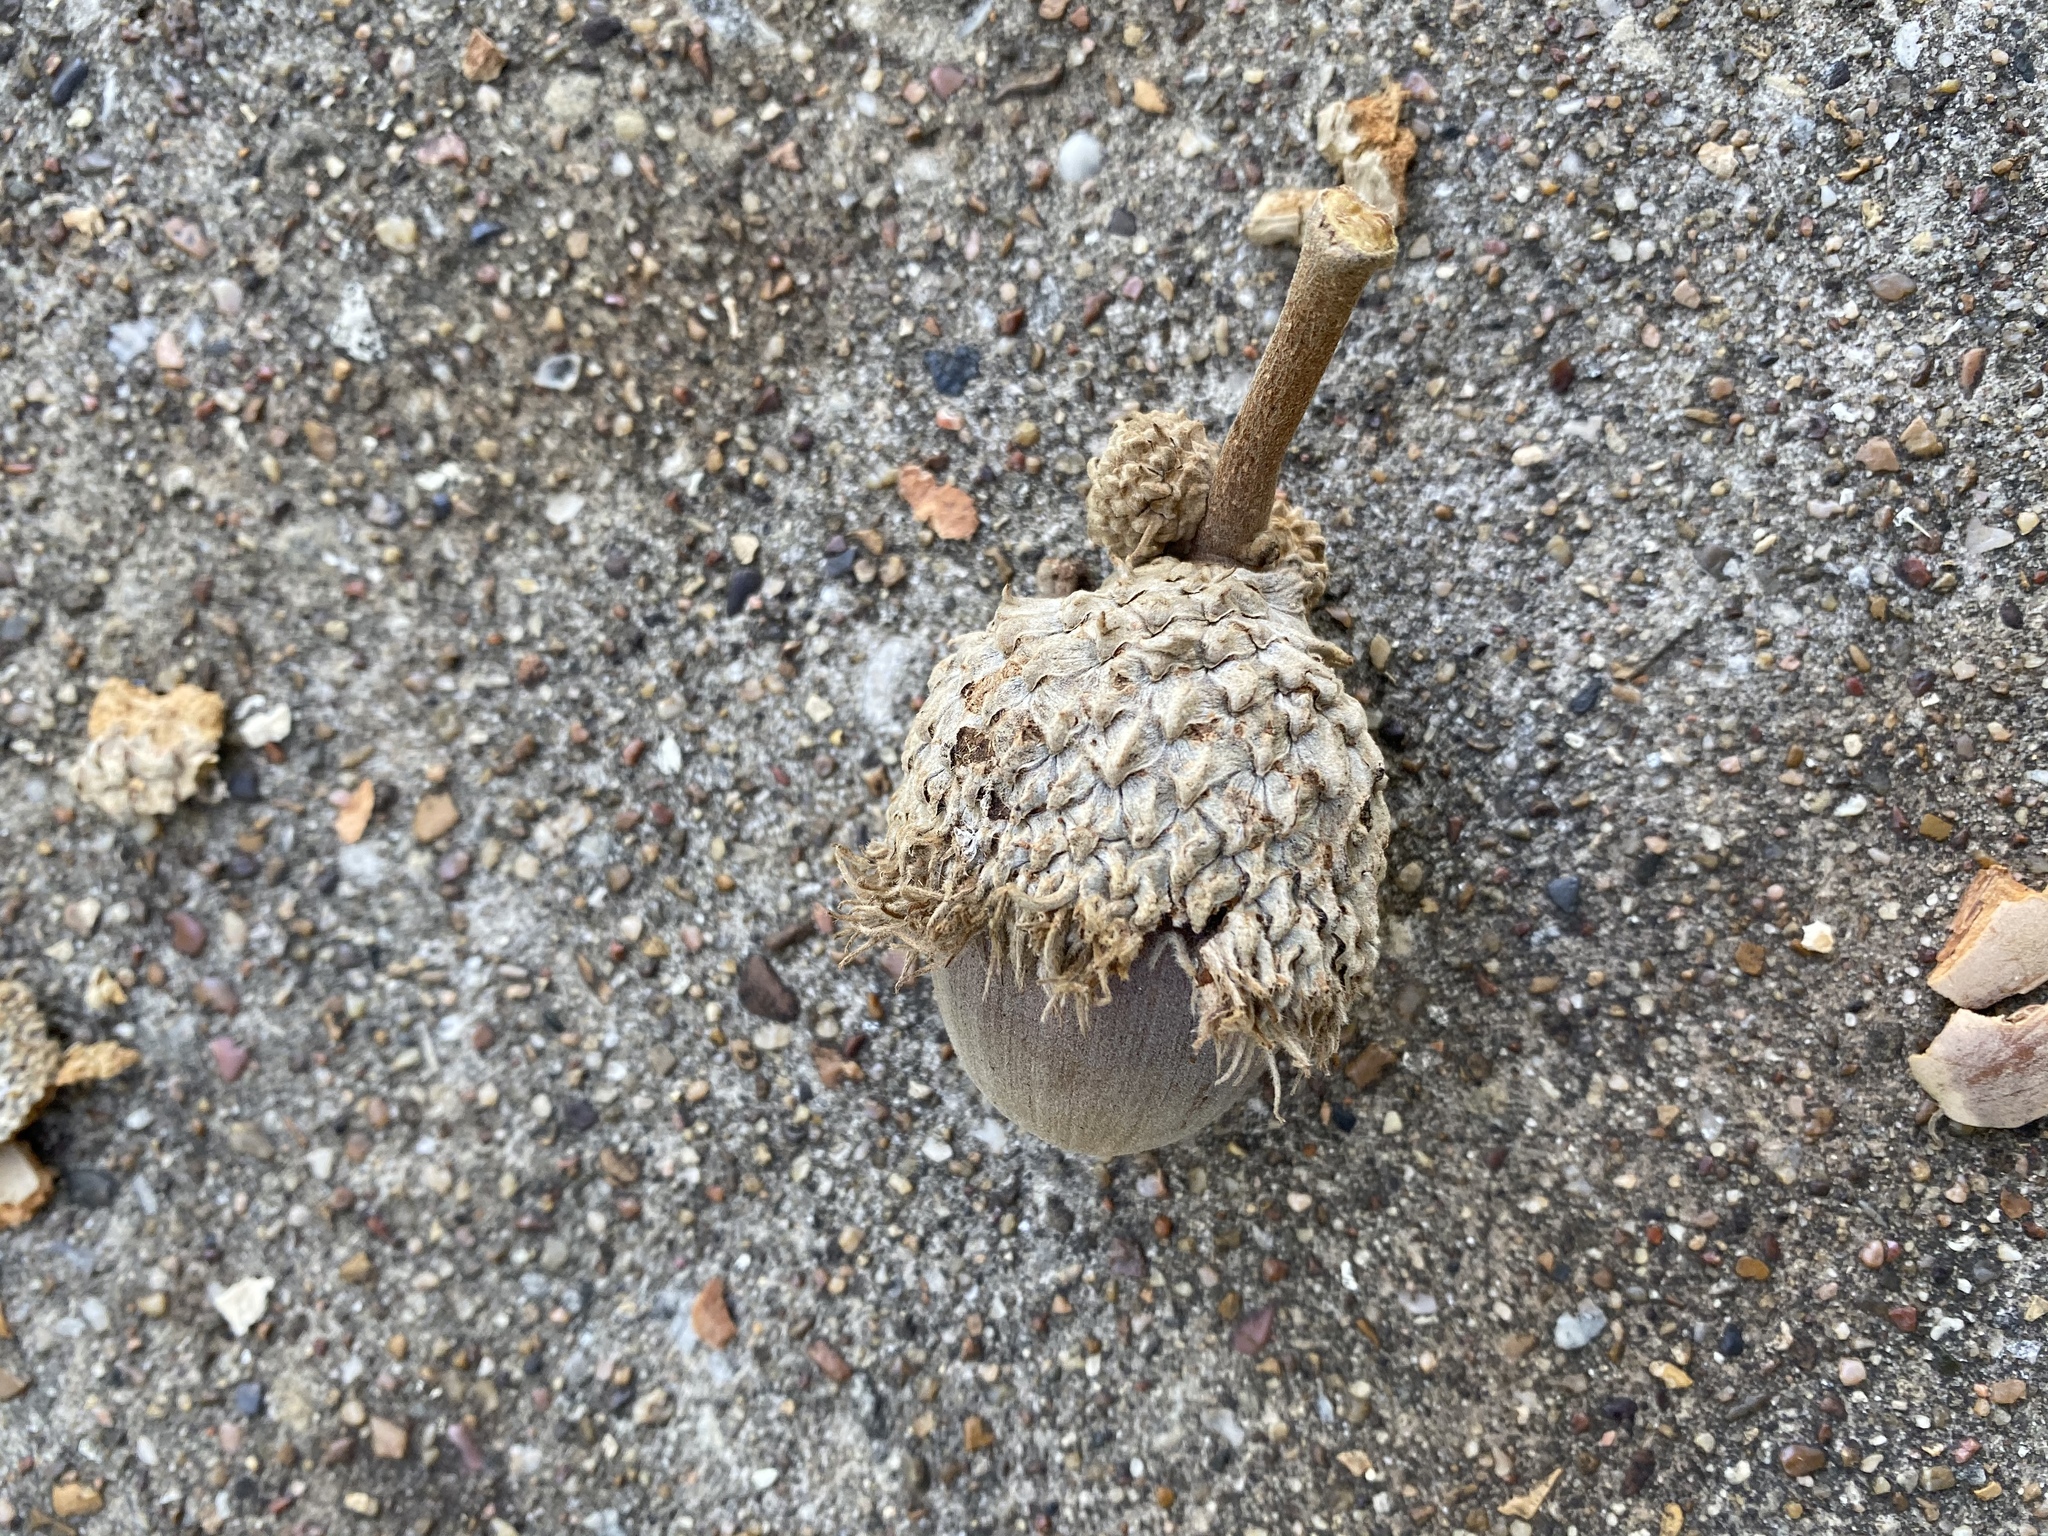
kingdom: Plantae
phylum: Tracheophyta
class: Magnoliopsida
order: Fagales
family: Fagaceae
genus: Quercus
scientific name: Quercus macrocarpa
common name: Bur oak
